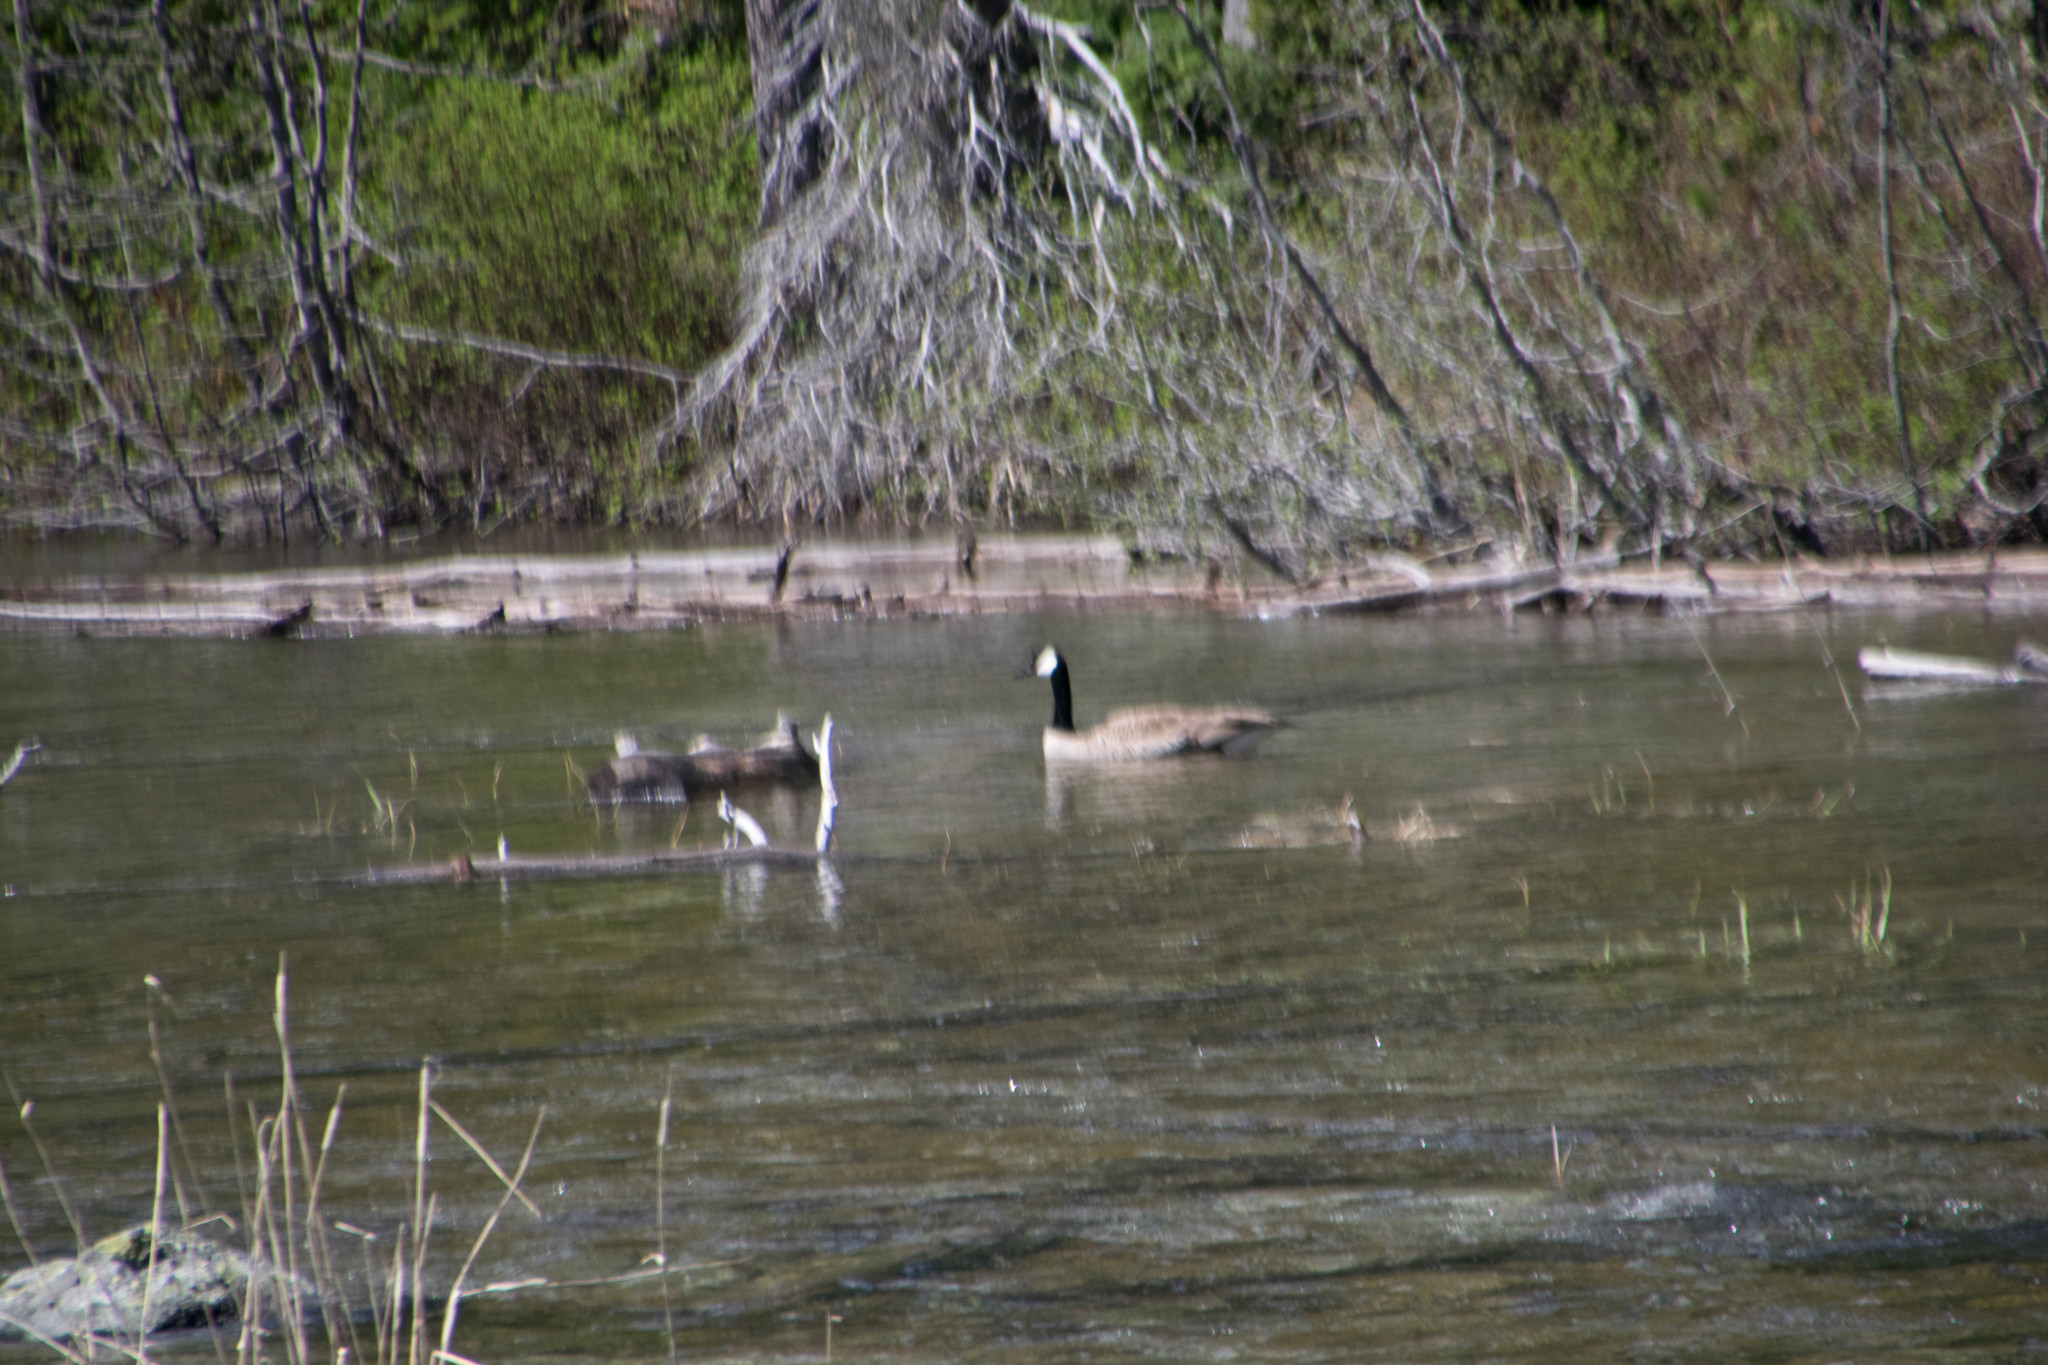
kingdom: Animalia
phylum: Chordata
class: Aves
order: Anseriformes
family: Anatidae
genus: Branta
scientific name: Branta canadensis
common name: Canada goose
